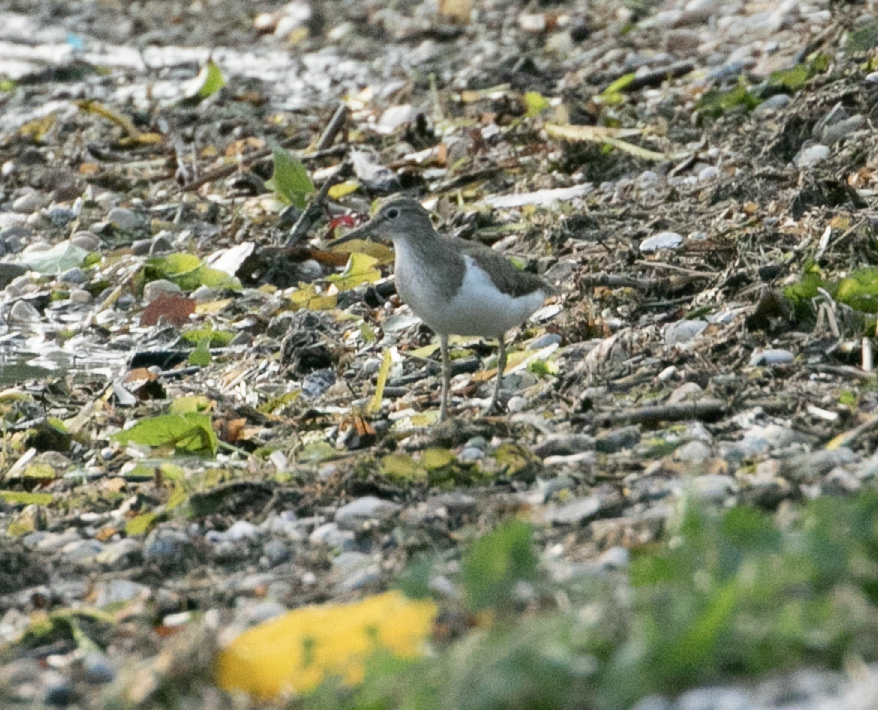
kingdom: Animalia
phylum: Chordata
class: Aves
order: Charadriiformes
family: Scolopacidae
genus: Actitis
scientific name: Actitis hypoleucos
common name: Common sandpiper
